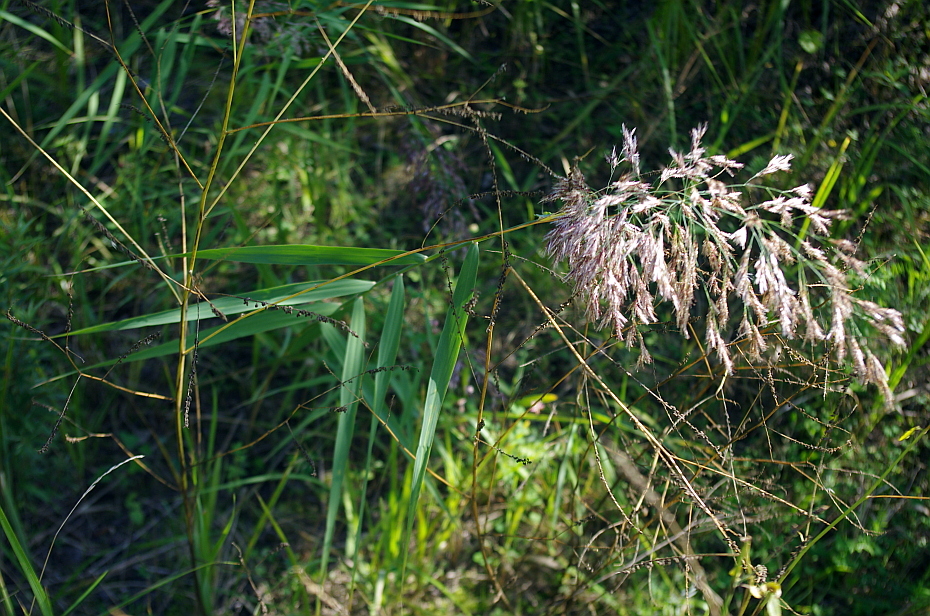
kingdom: Plantae
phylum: Tracheophyta
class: Liliopsida
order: Poales
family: Poaceae
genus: Phragmites
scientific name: Phragmites australis
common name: Common reed
